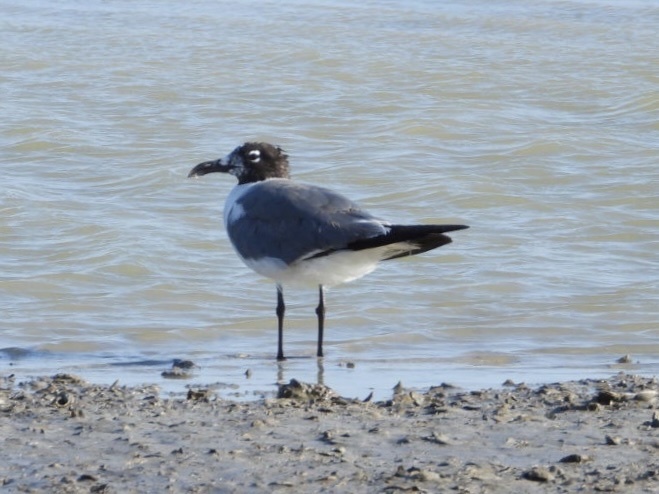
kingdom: Animalia
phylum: Chordata
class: Aves
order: Charadriiformes
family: Laridae
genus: Leucophaeus
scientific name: Leucophaeus atricilla
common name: Laughing gull
